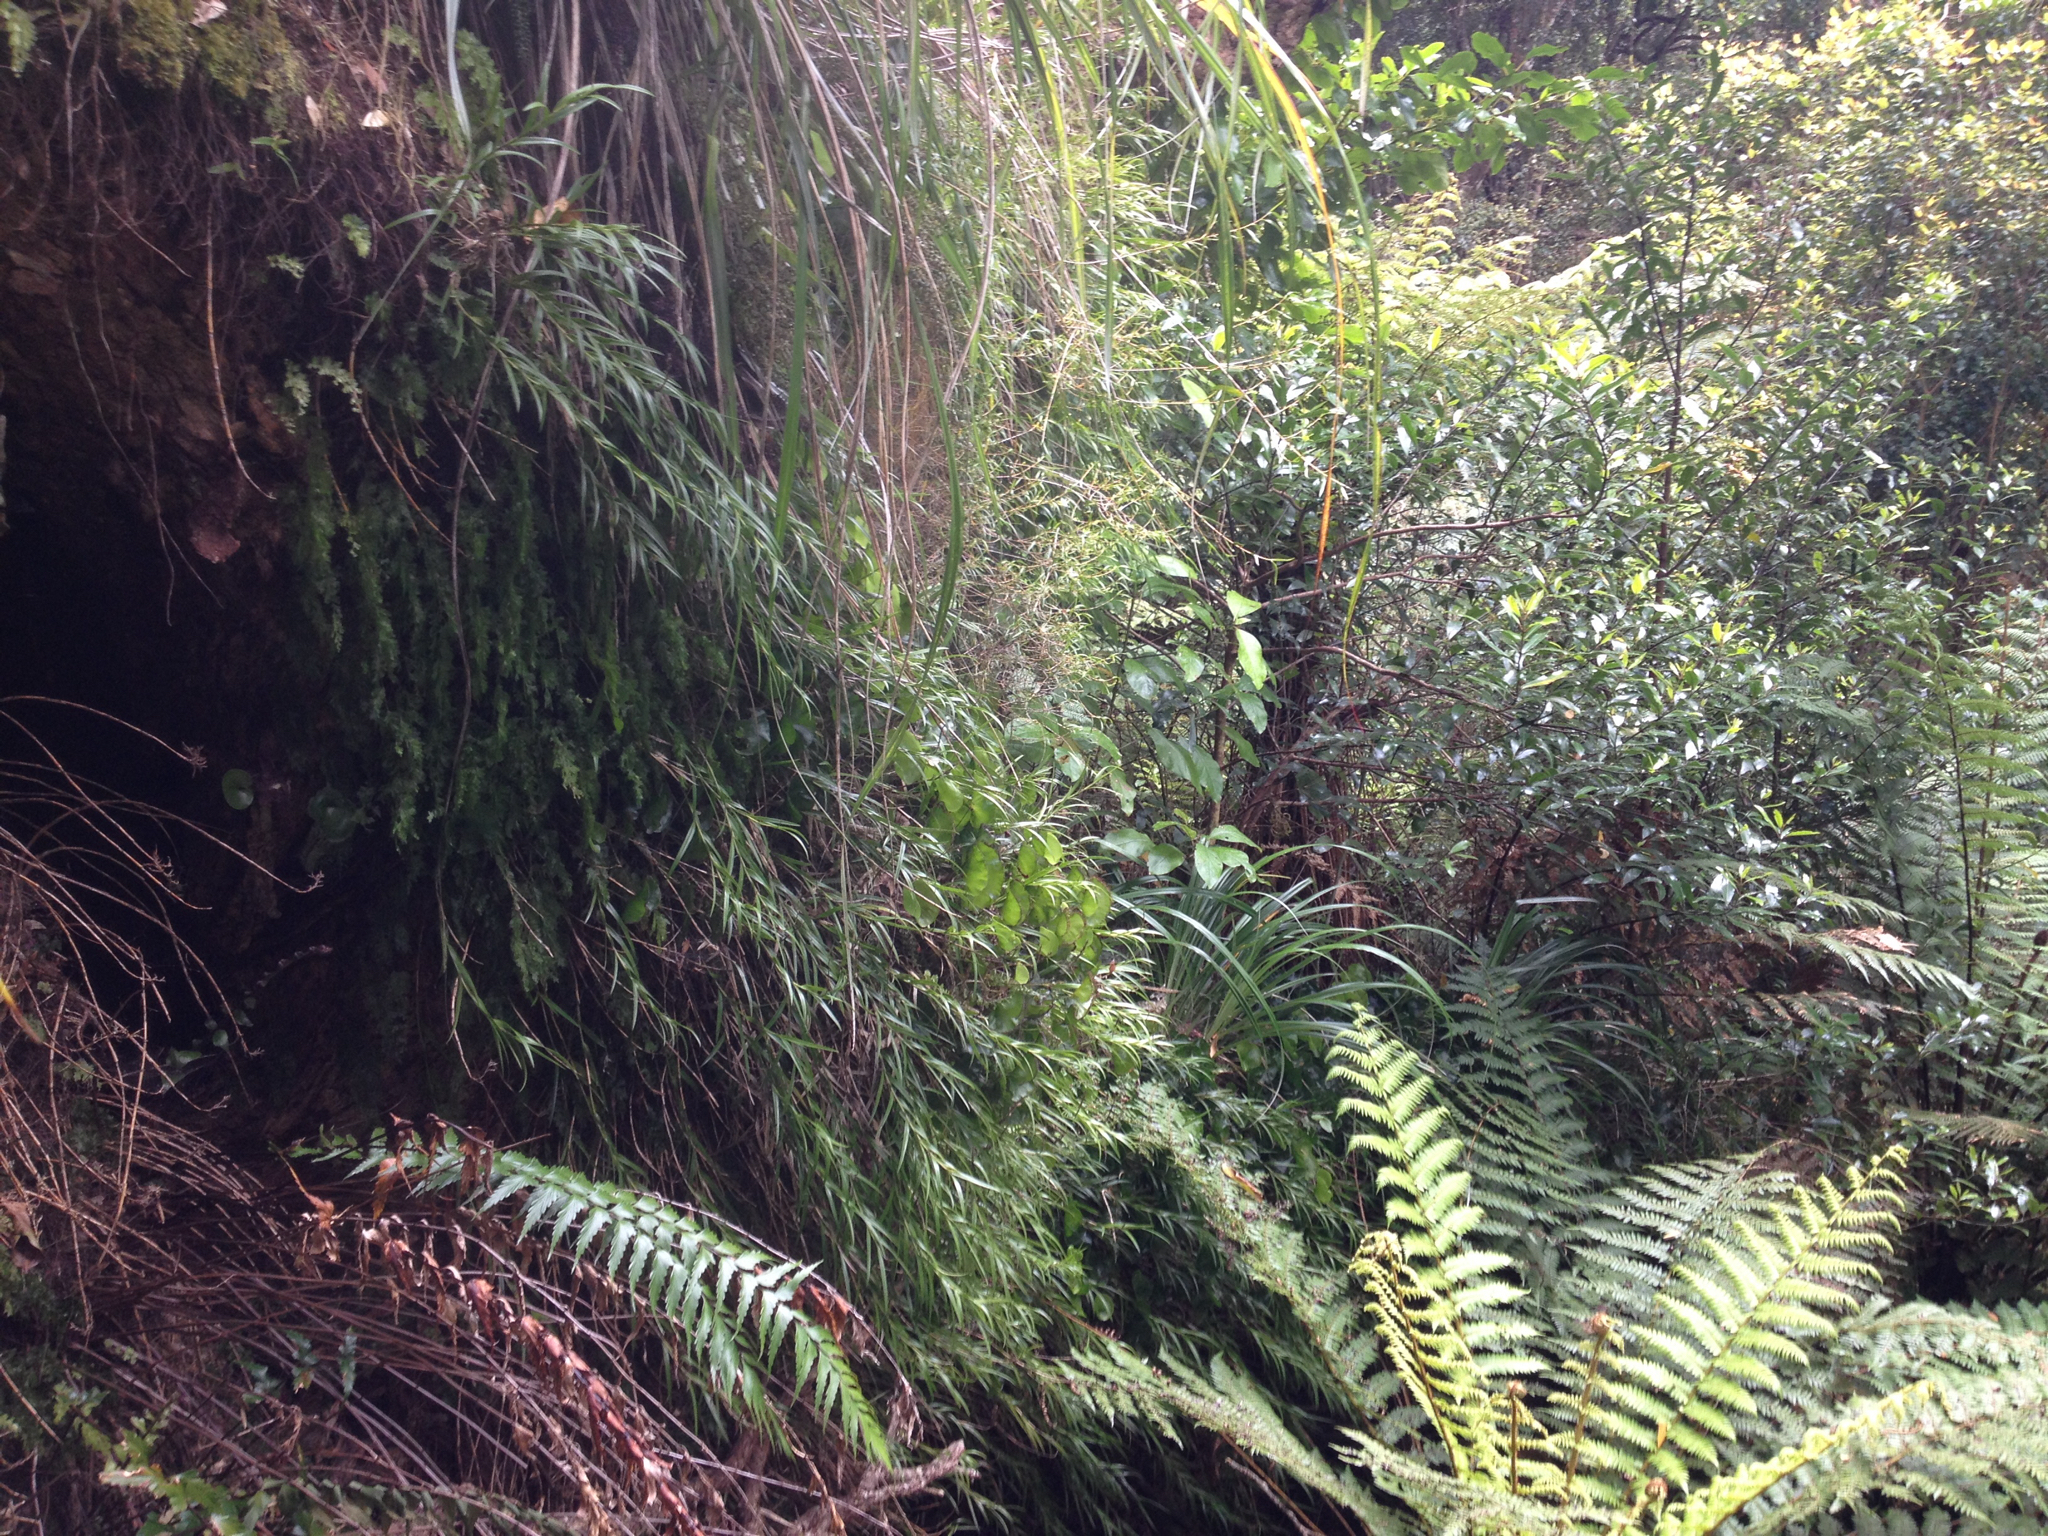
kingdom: Plantae
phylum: Tracheophyta
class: Liliopsida
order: Asparagales
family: Orchidaceae
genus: Earina
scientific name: Earina autumnalis
